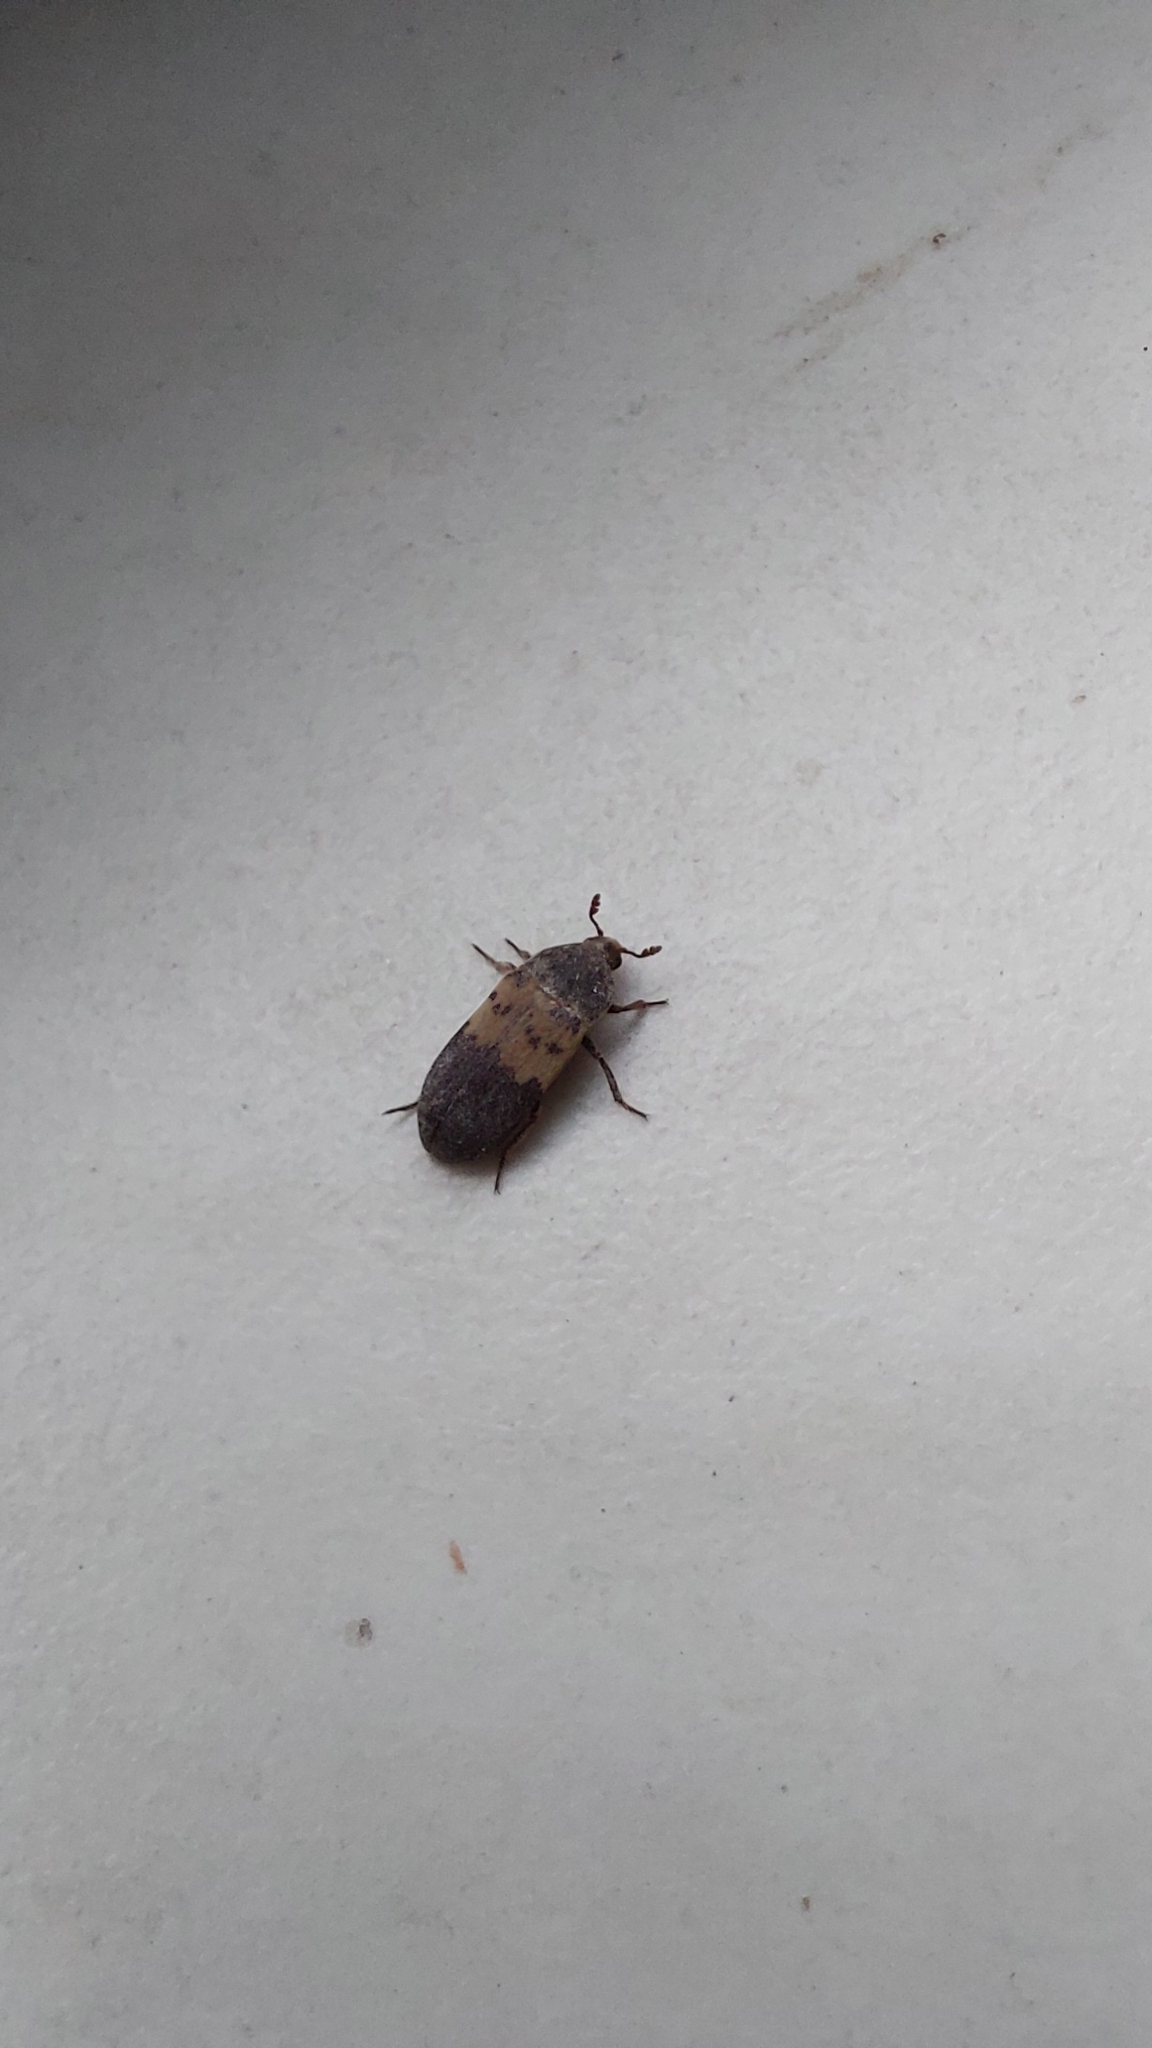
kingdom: Animalia
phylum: Arthropoda
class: Insecta
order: Coleoptera
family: Dermestidae
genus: Dermestes
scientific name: Dermestes lardarius
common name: Larder beetle
